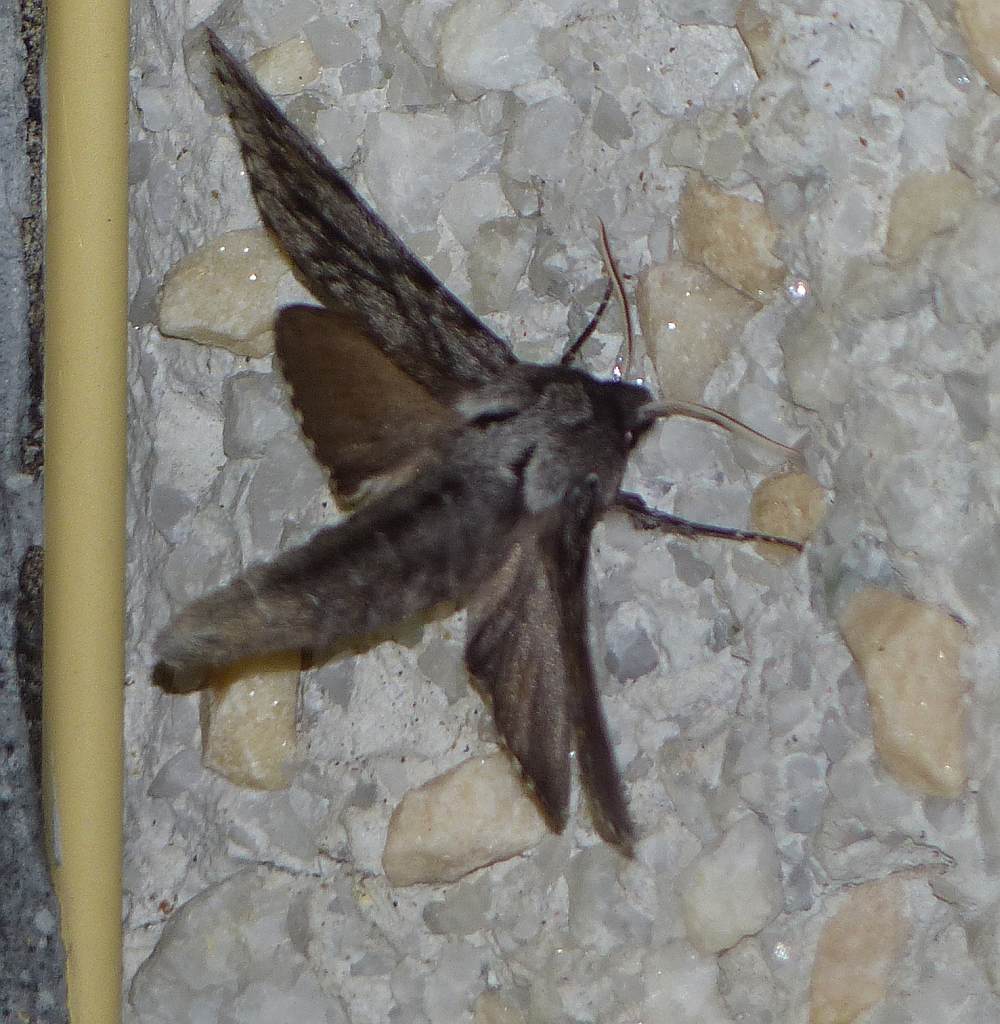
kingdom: Animalia
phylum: Arthropoda
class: Insecta
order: Lepidoptera
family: Sphingidae
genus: Lapara
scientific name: Lapara bombycoides
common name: Northern pine sphinx
